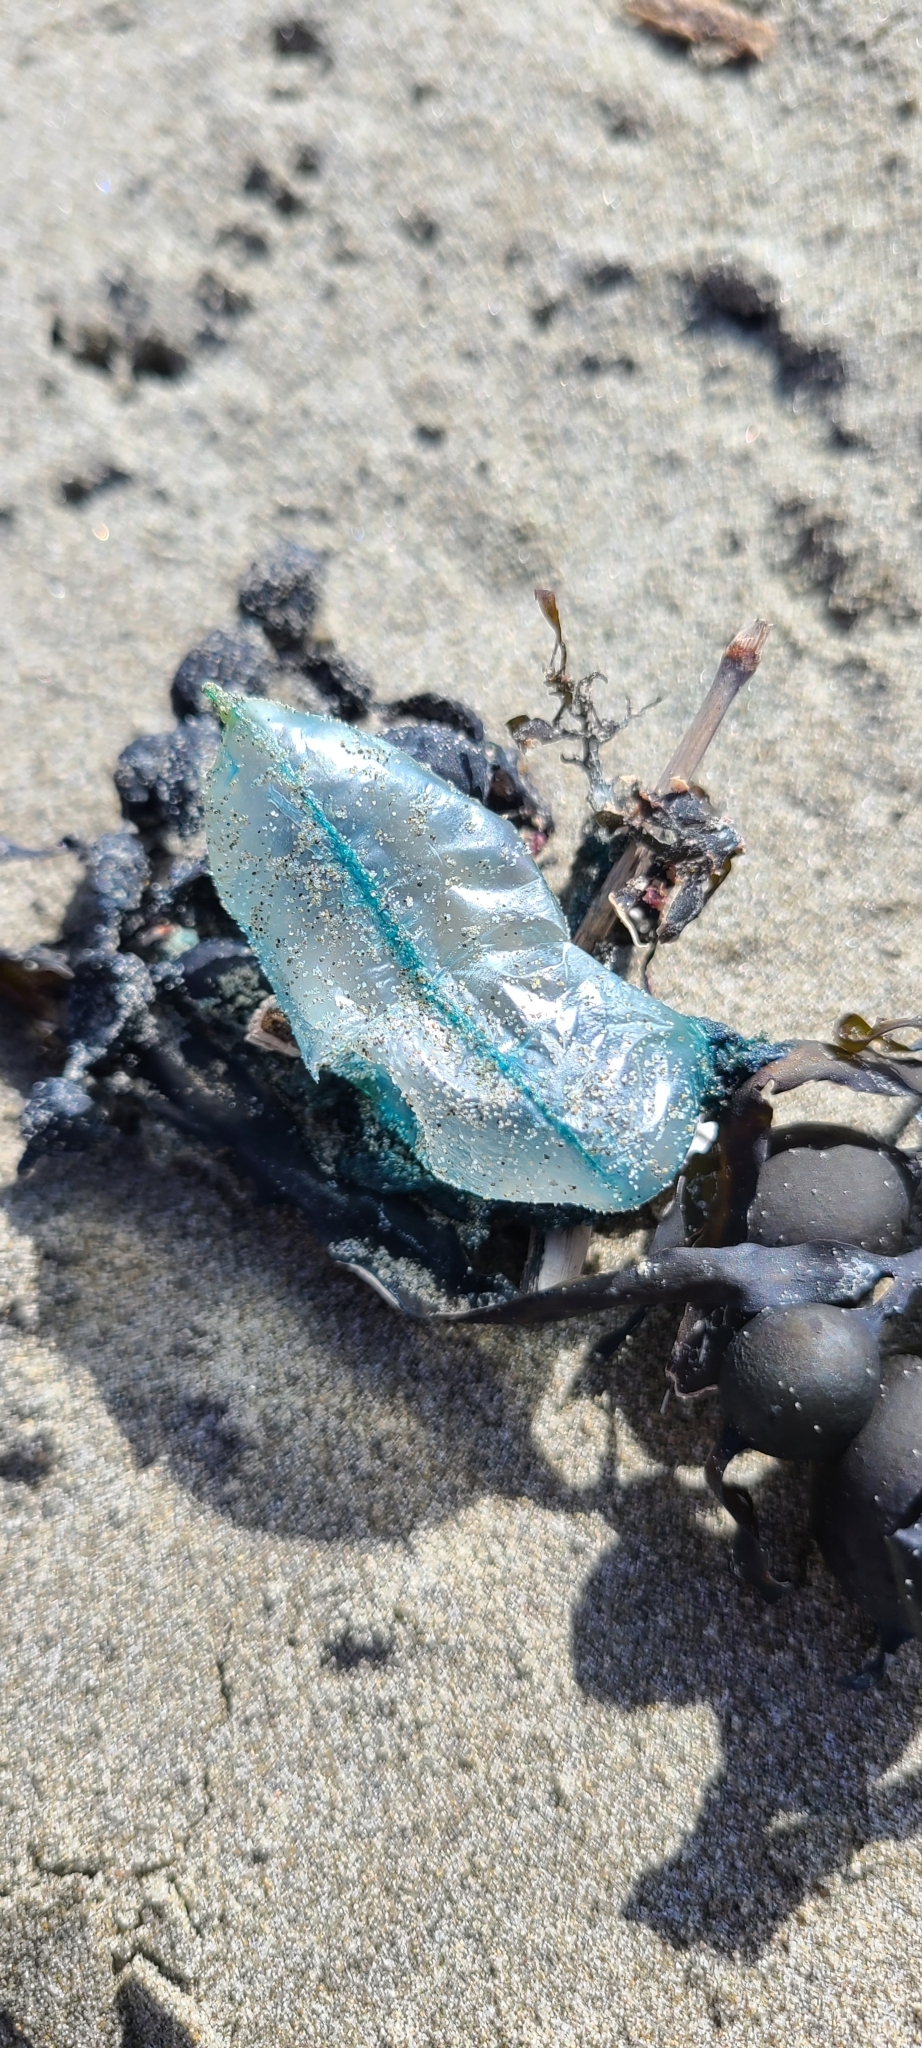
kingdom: Animalia
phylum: Cnidaria
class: Hydrozoa
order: Siphonophorae
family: Physaliidae
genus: Physalia
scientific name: Physalia physalis
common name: Portuguese man-of-war
